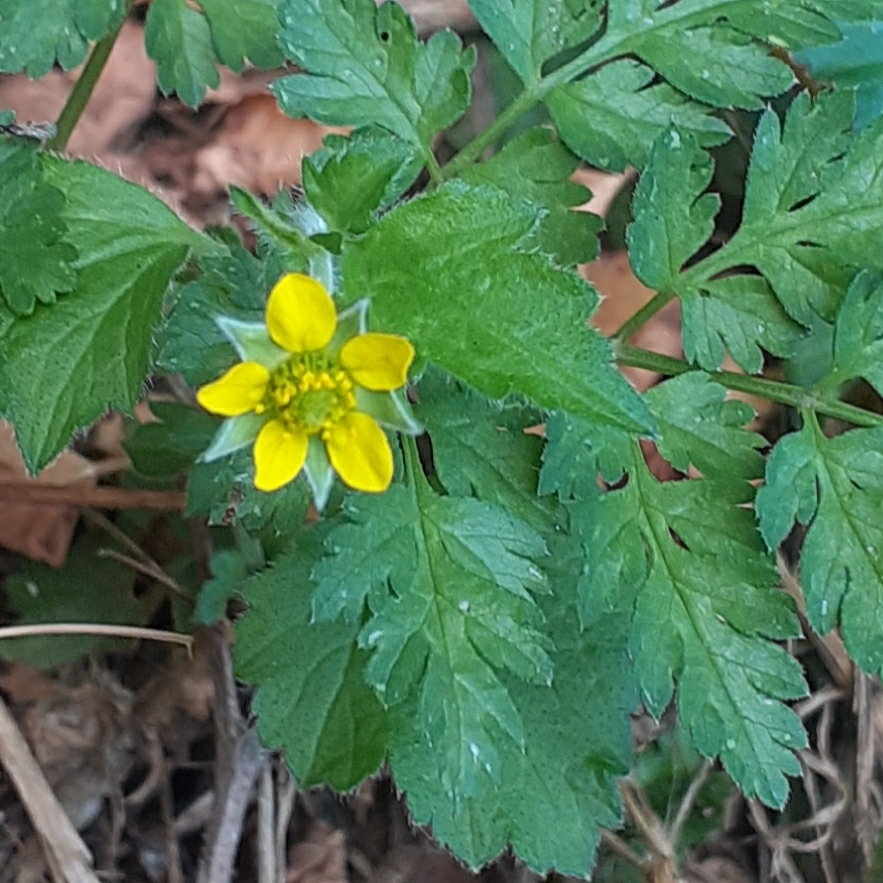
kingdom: Plantae
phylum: Tracheophyta
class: Magnoliopsida
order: Rosales
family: Rosaceae
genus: Geum
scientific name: Geum urbanum
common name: Wood avens
